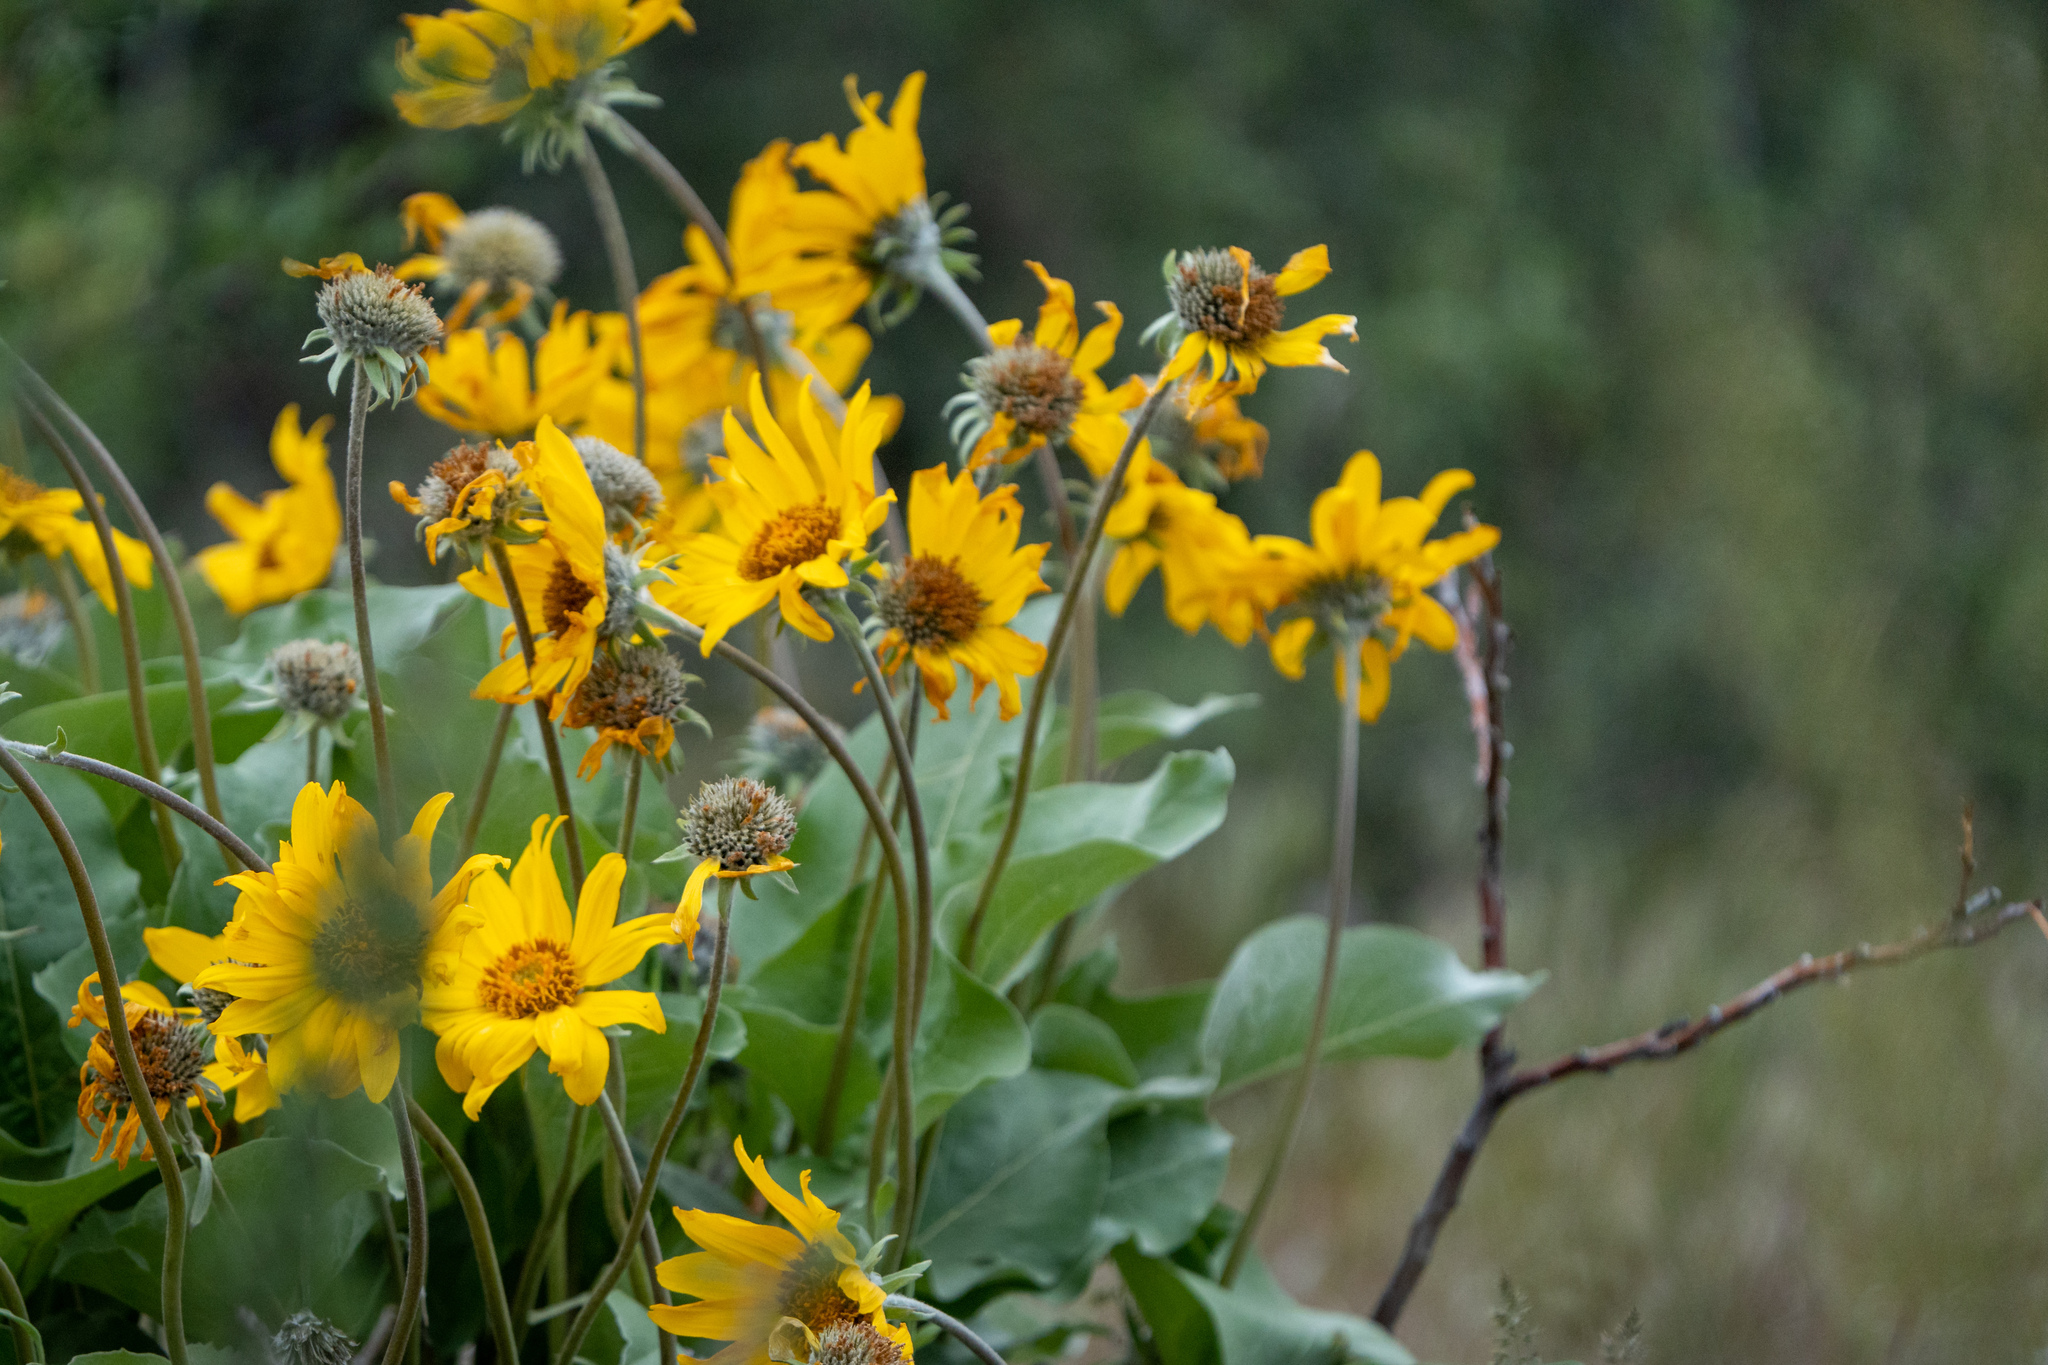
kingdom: Plantae
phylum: Tracheophyta
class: Magnoliopsida
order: Asterales
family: Asteraceae
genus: Wyethia
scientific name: Wyethia sagittata
